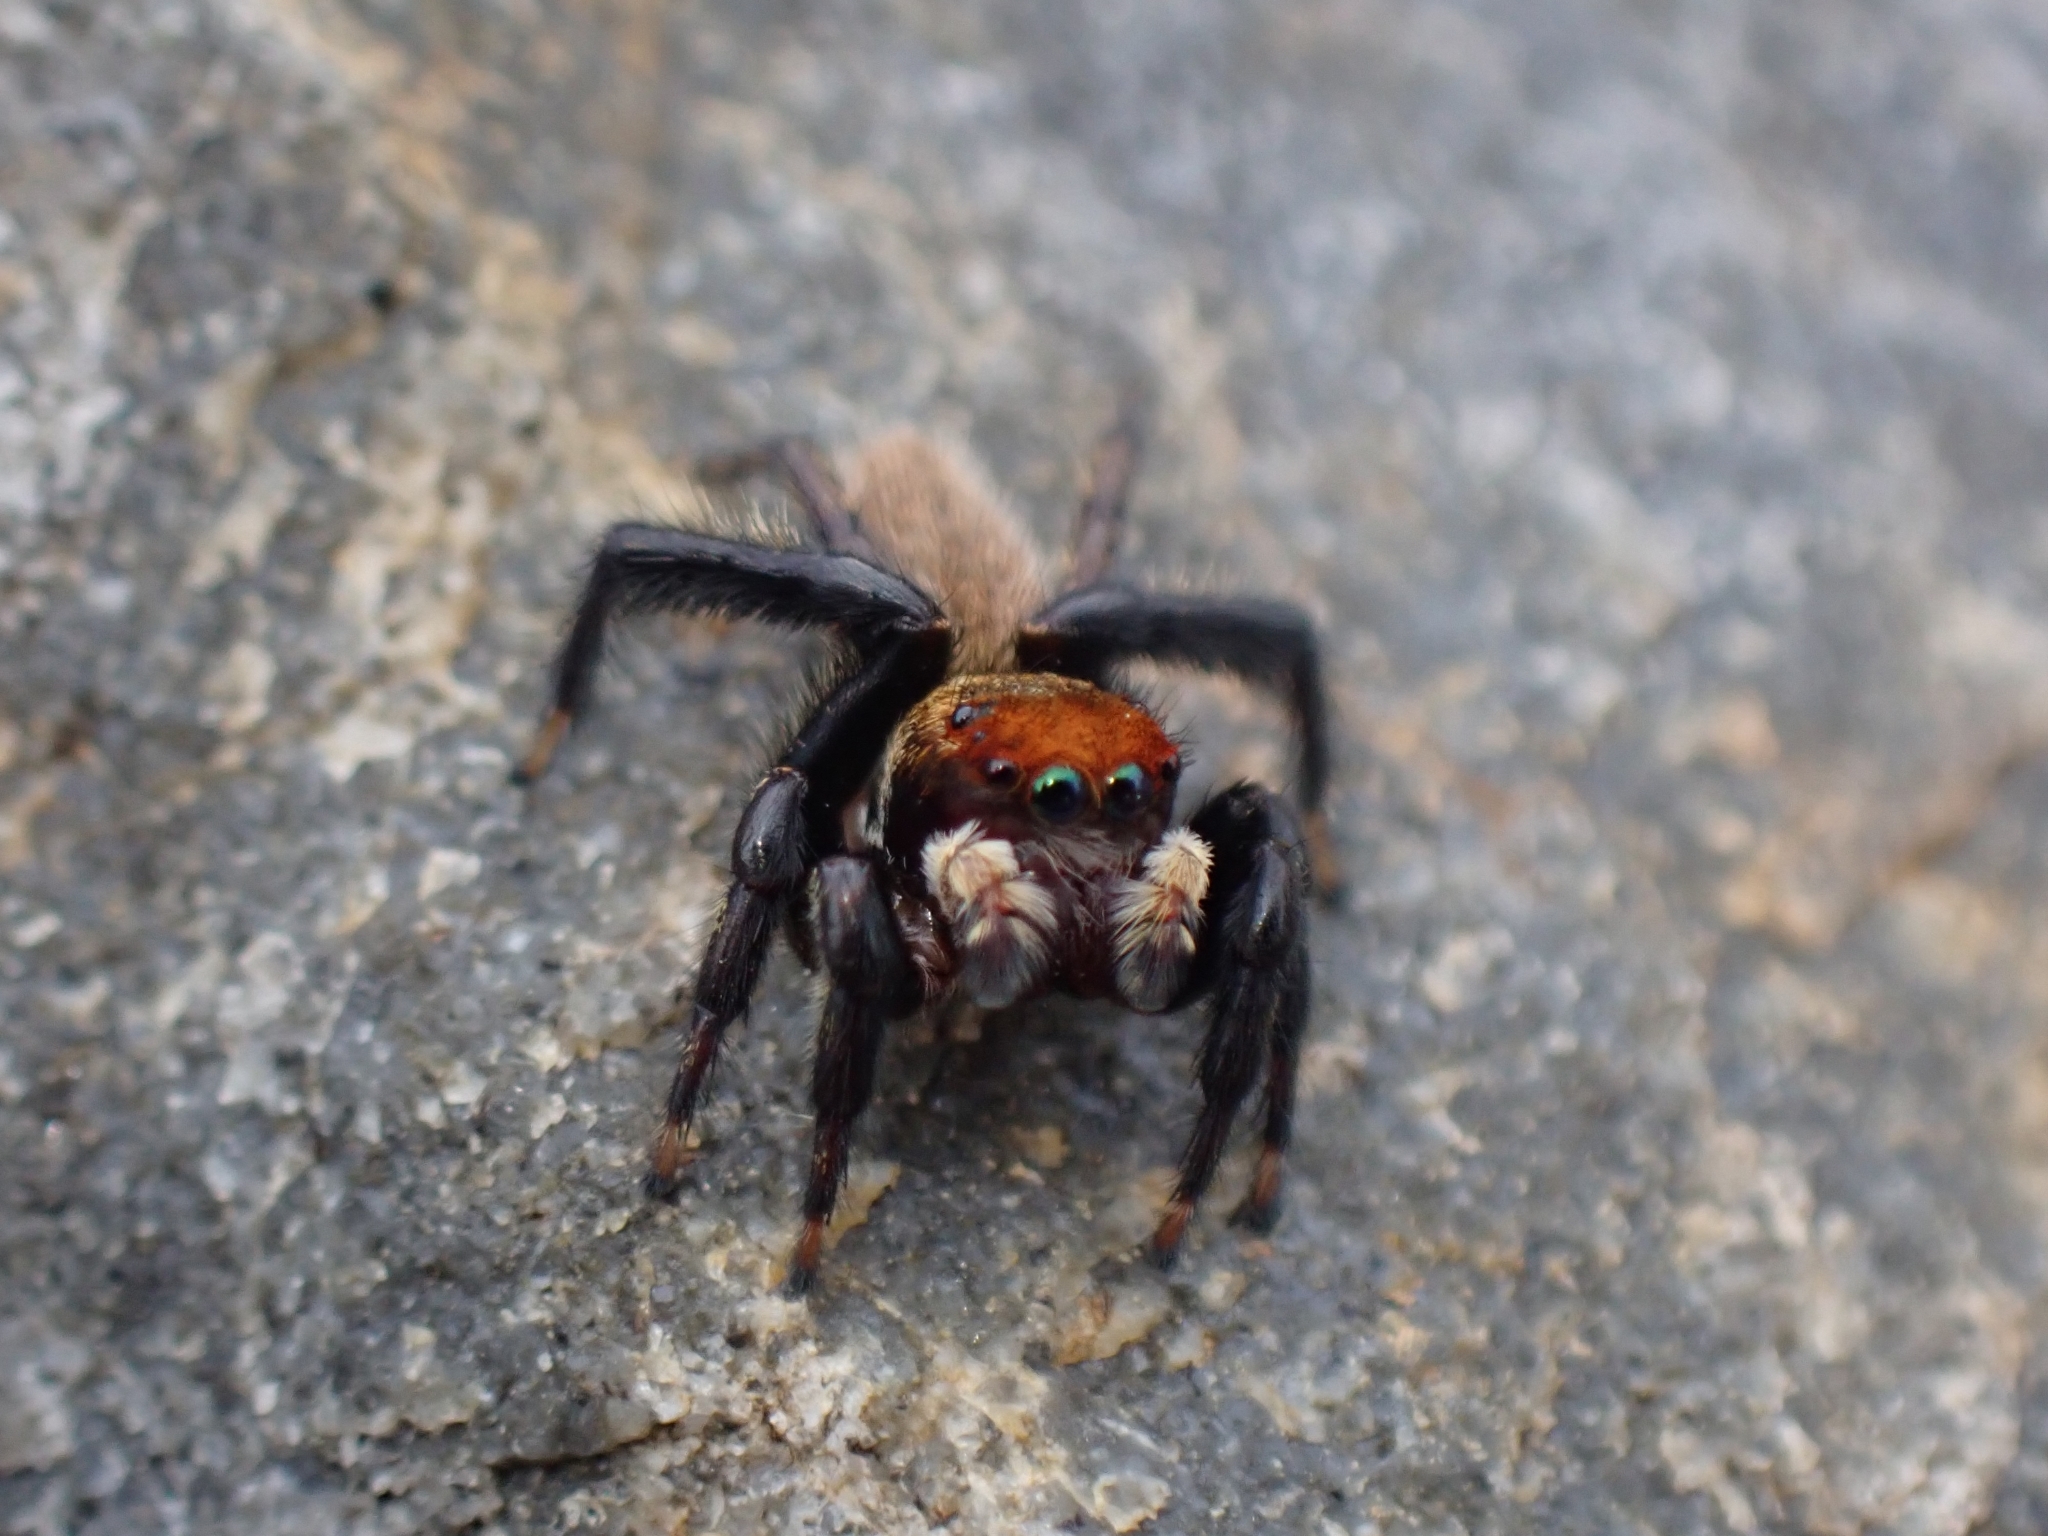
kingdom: Animalia
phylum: Arthropoda
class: Arachnida
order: Araneae
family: Salticidae
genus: Maratus
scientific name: Maratus griseus
